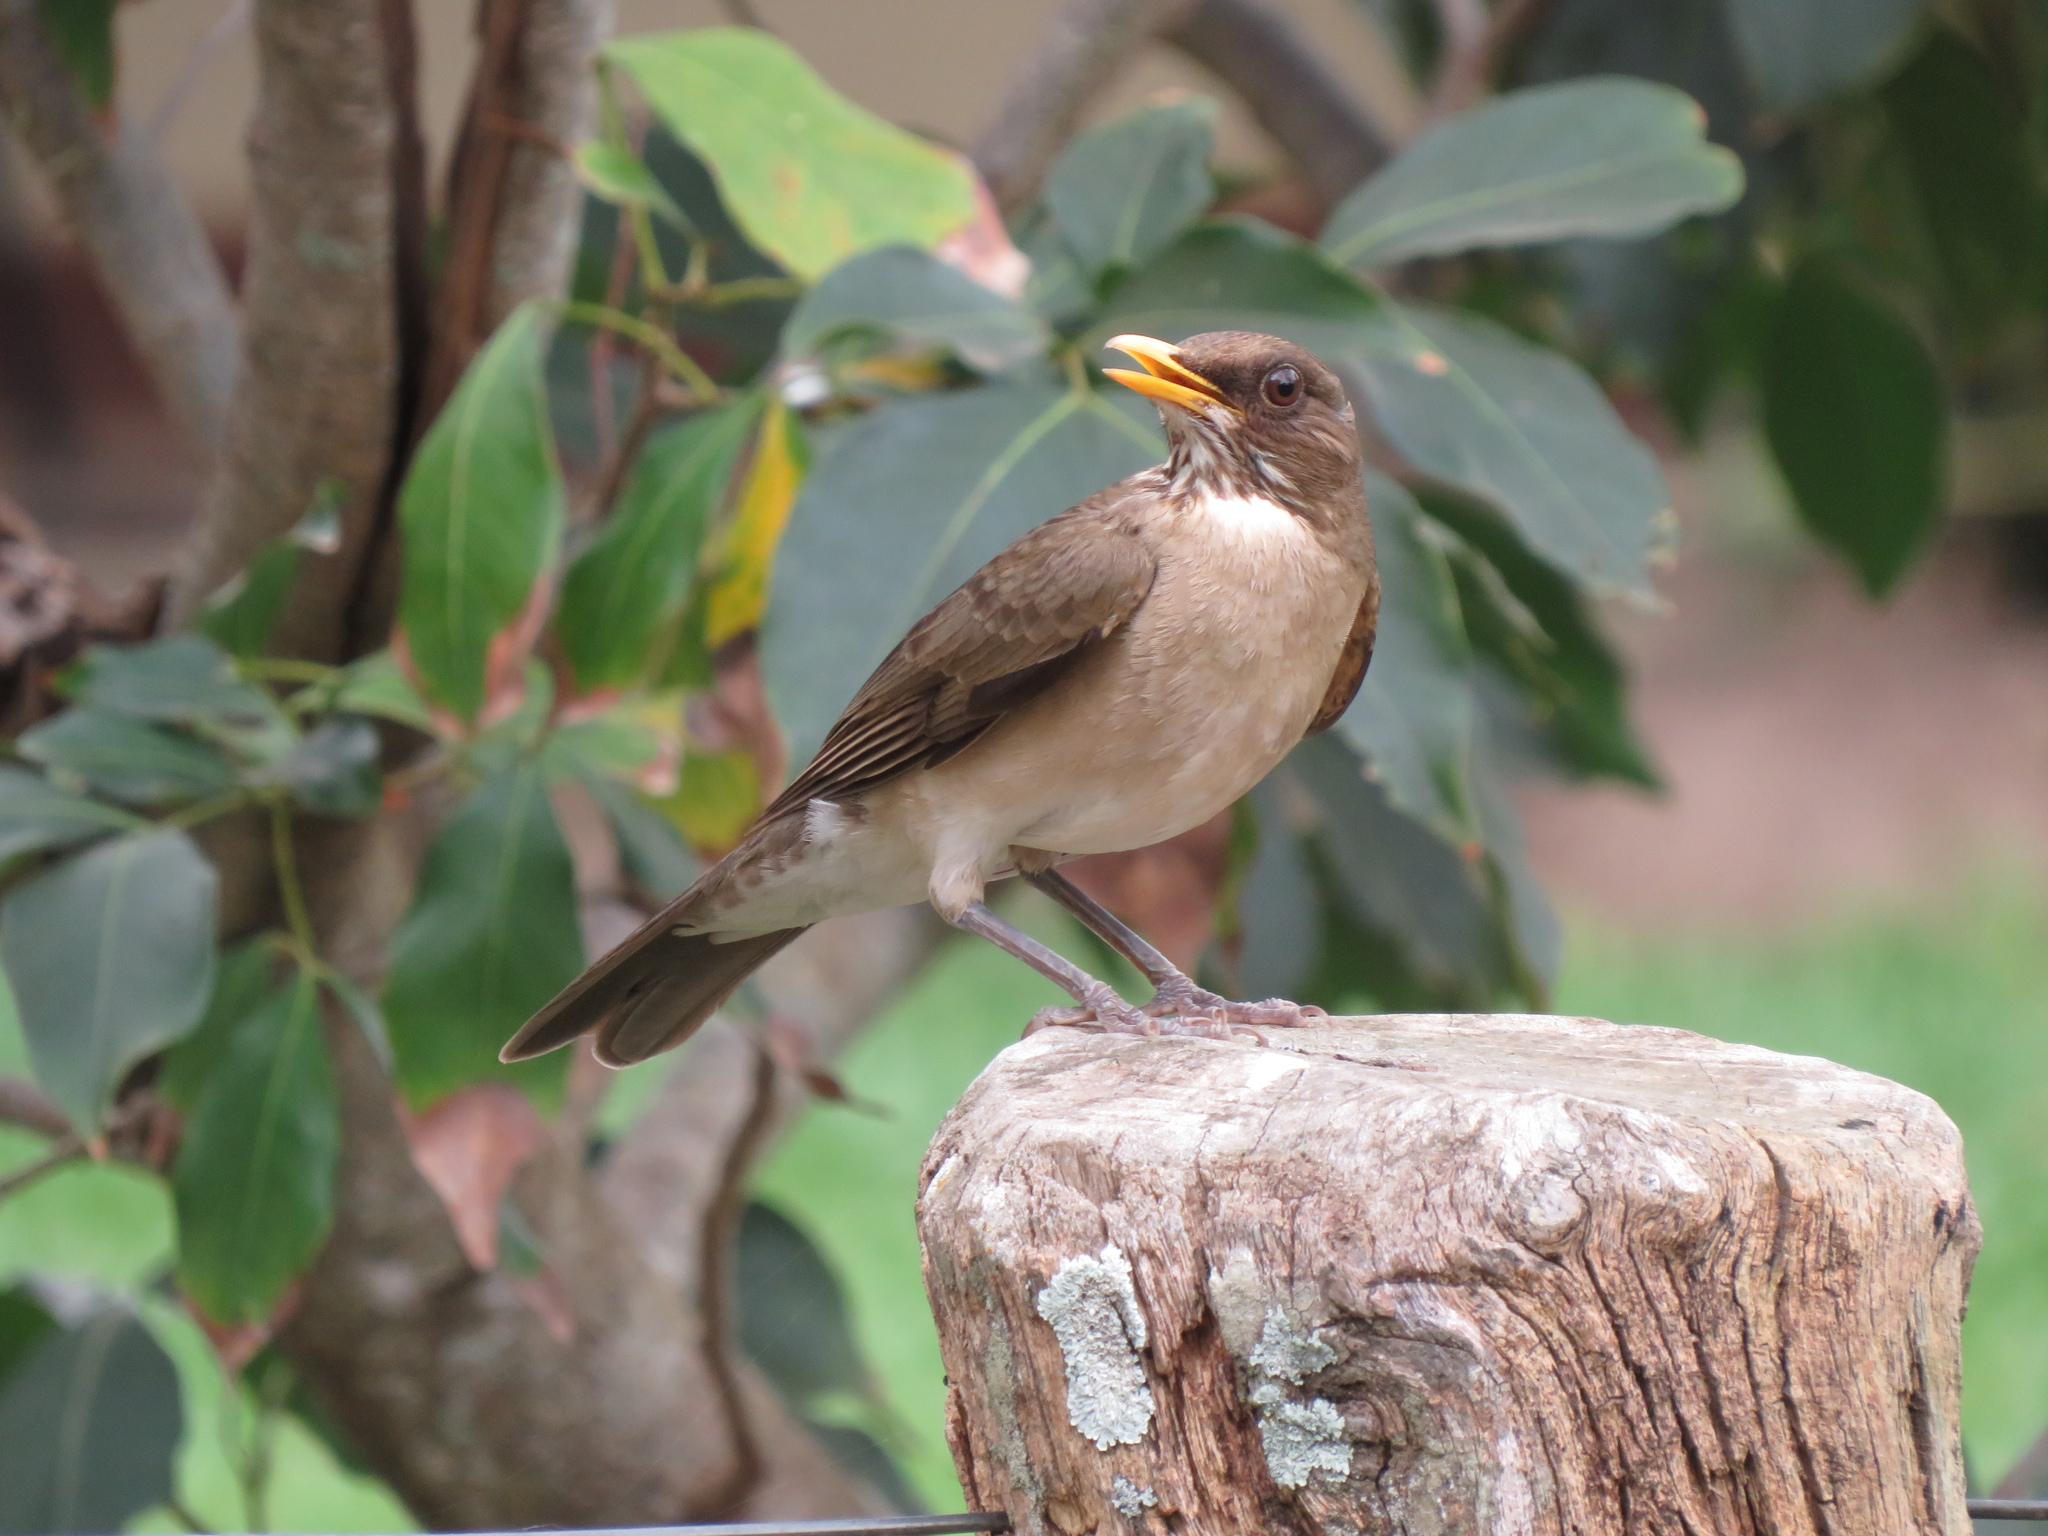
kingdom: Animalia
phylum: Chordata
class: Aves
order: Passeriformes
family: Turdidae
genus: Turdus
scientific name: Turdus amaurochalinus
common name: Creamy-bellied thrush
